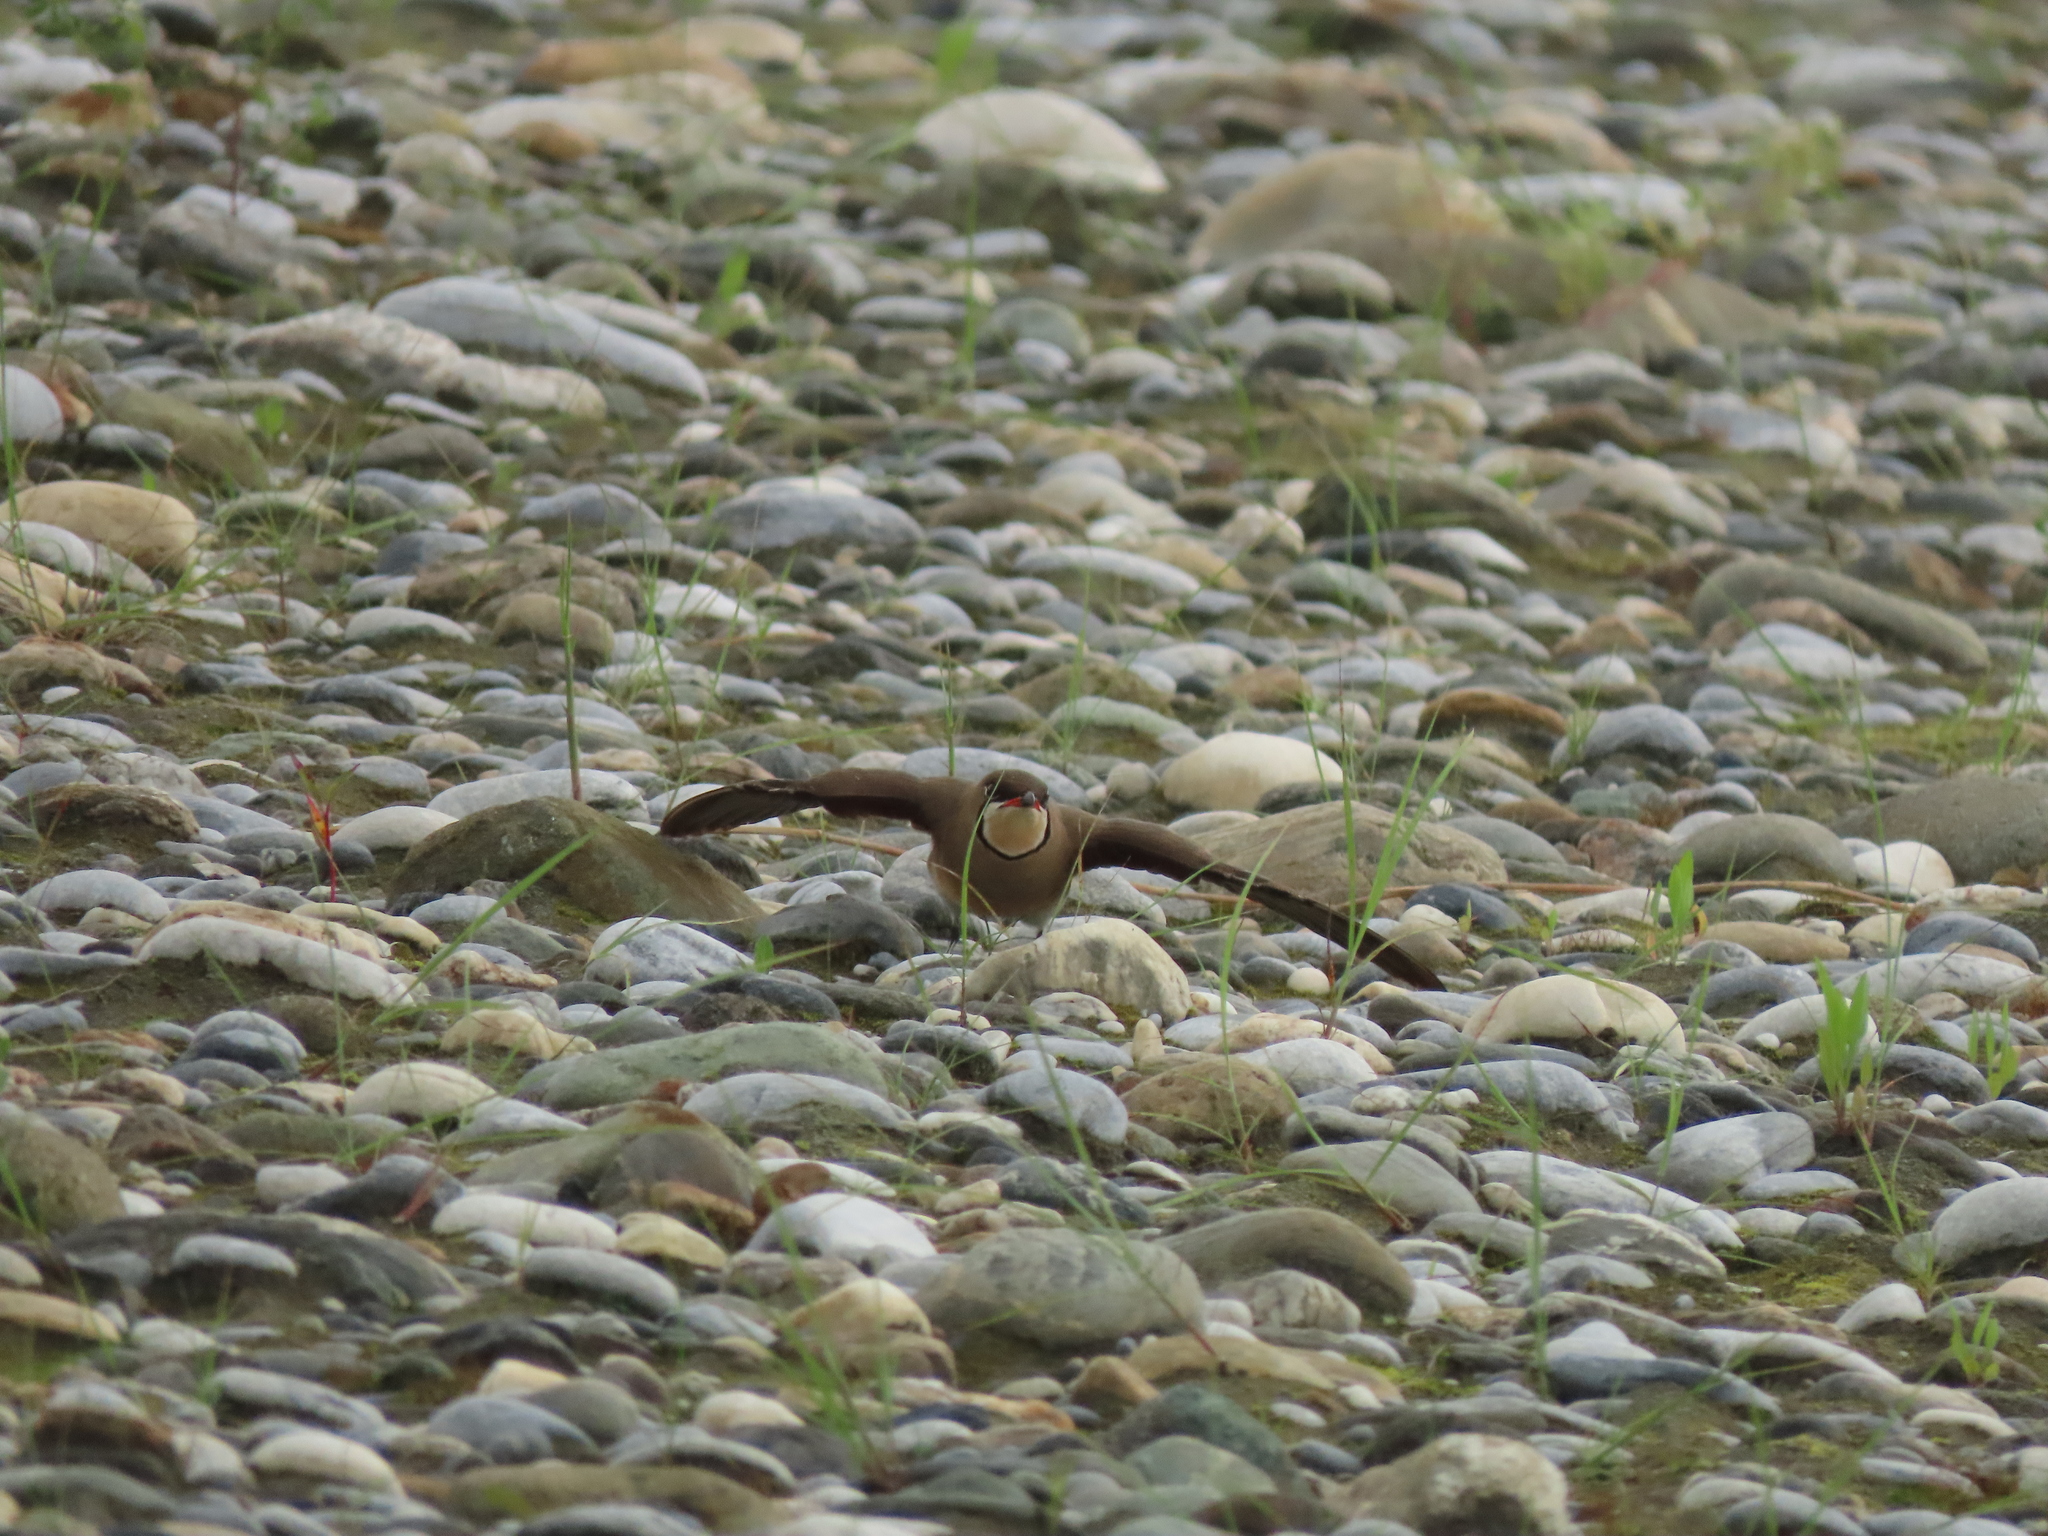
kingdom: Animalia
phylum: Chordata
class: Aves
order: Charadriiformes
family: Glareolidae
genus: Glareola
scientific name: Glareola maldivarum
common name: Oriental pratincole
